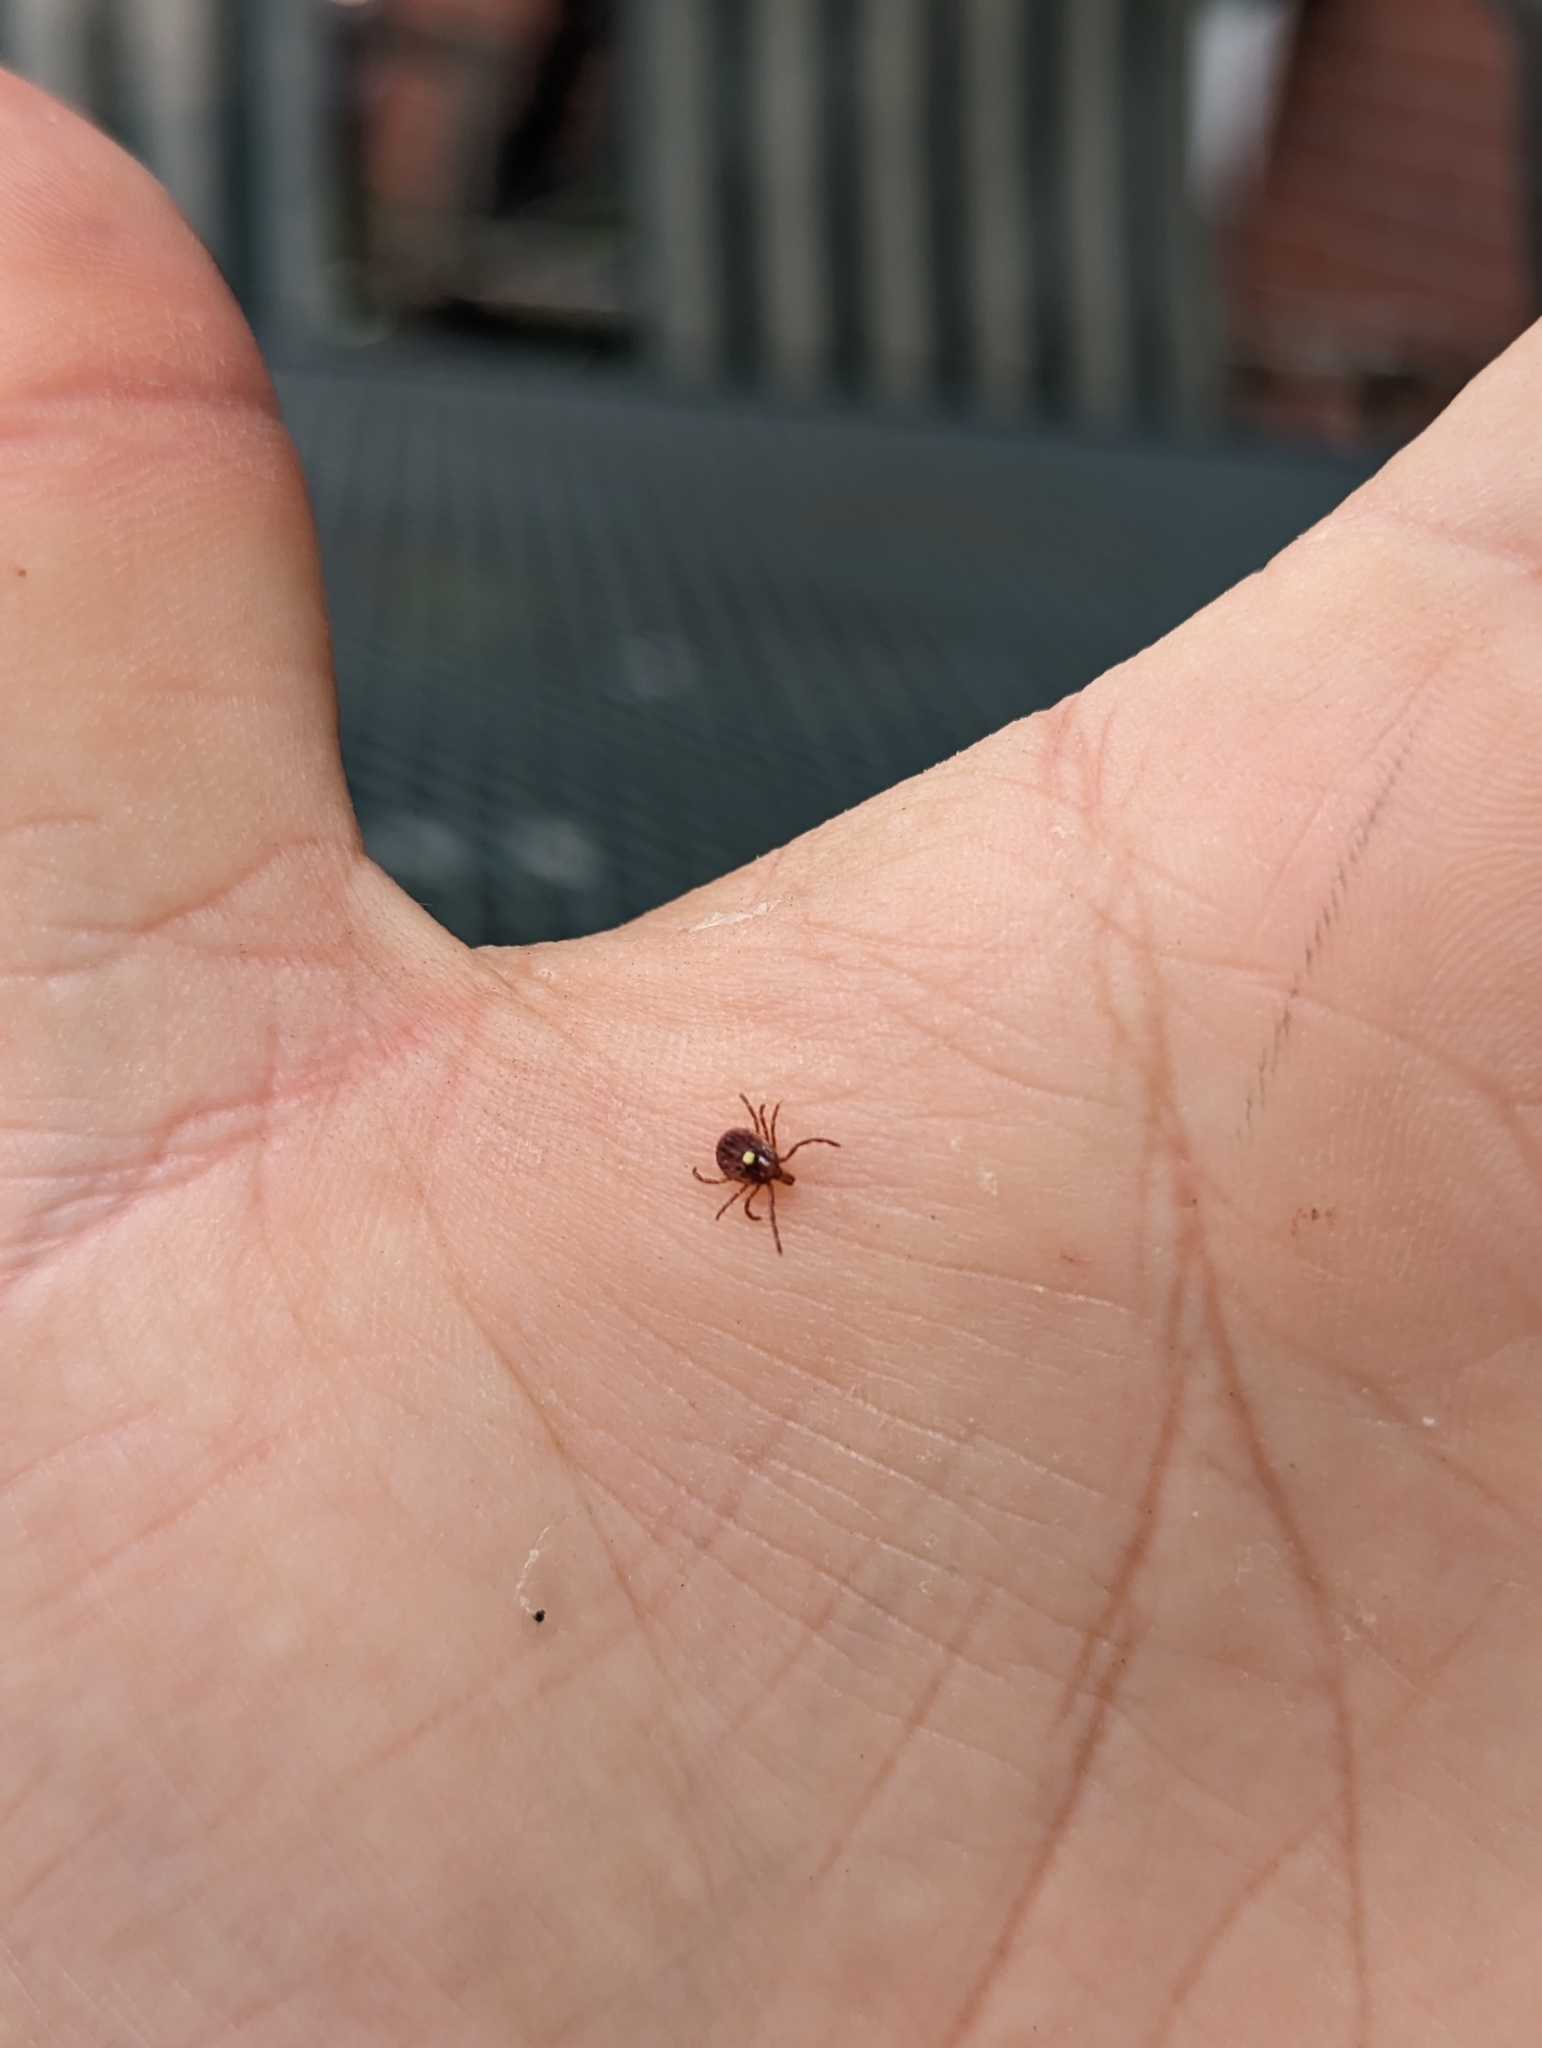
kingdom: Animalia
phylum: Arthropoda
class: Arachnida
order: Ixodida
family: Ixodidae
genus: Amblyomma
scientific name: Amblyomma americanum
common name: Lone star tick
